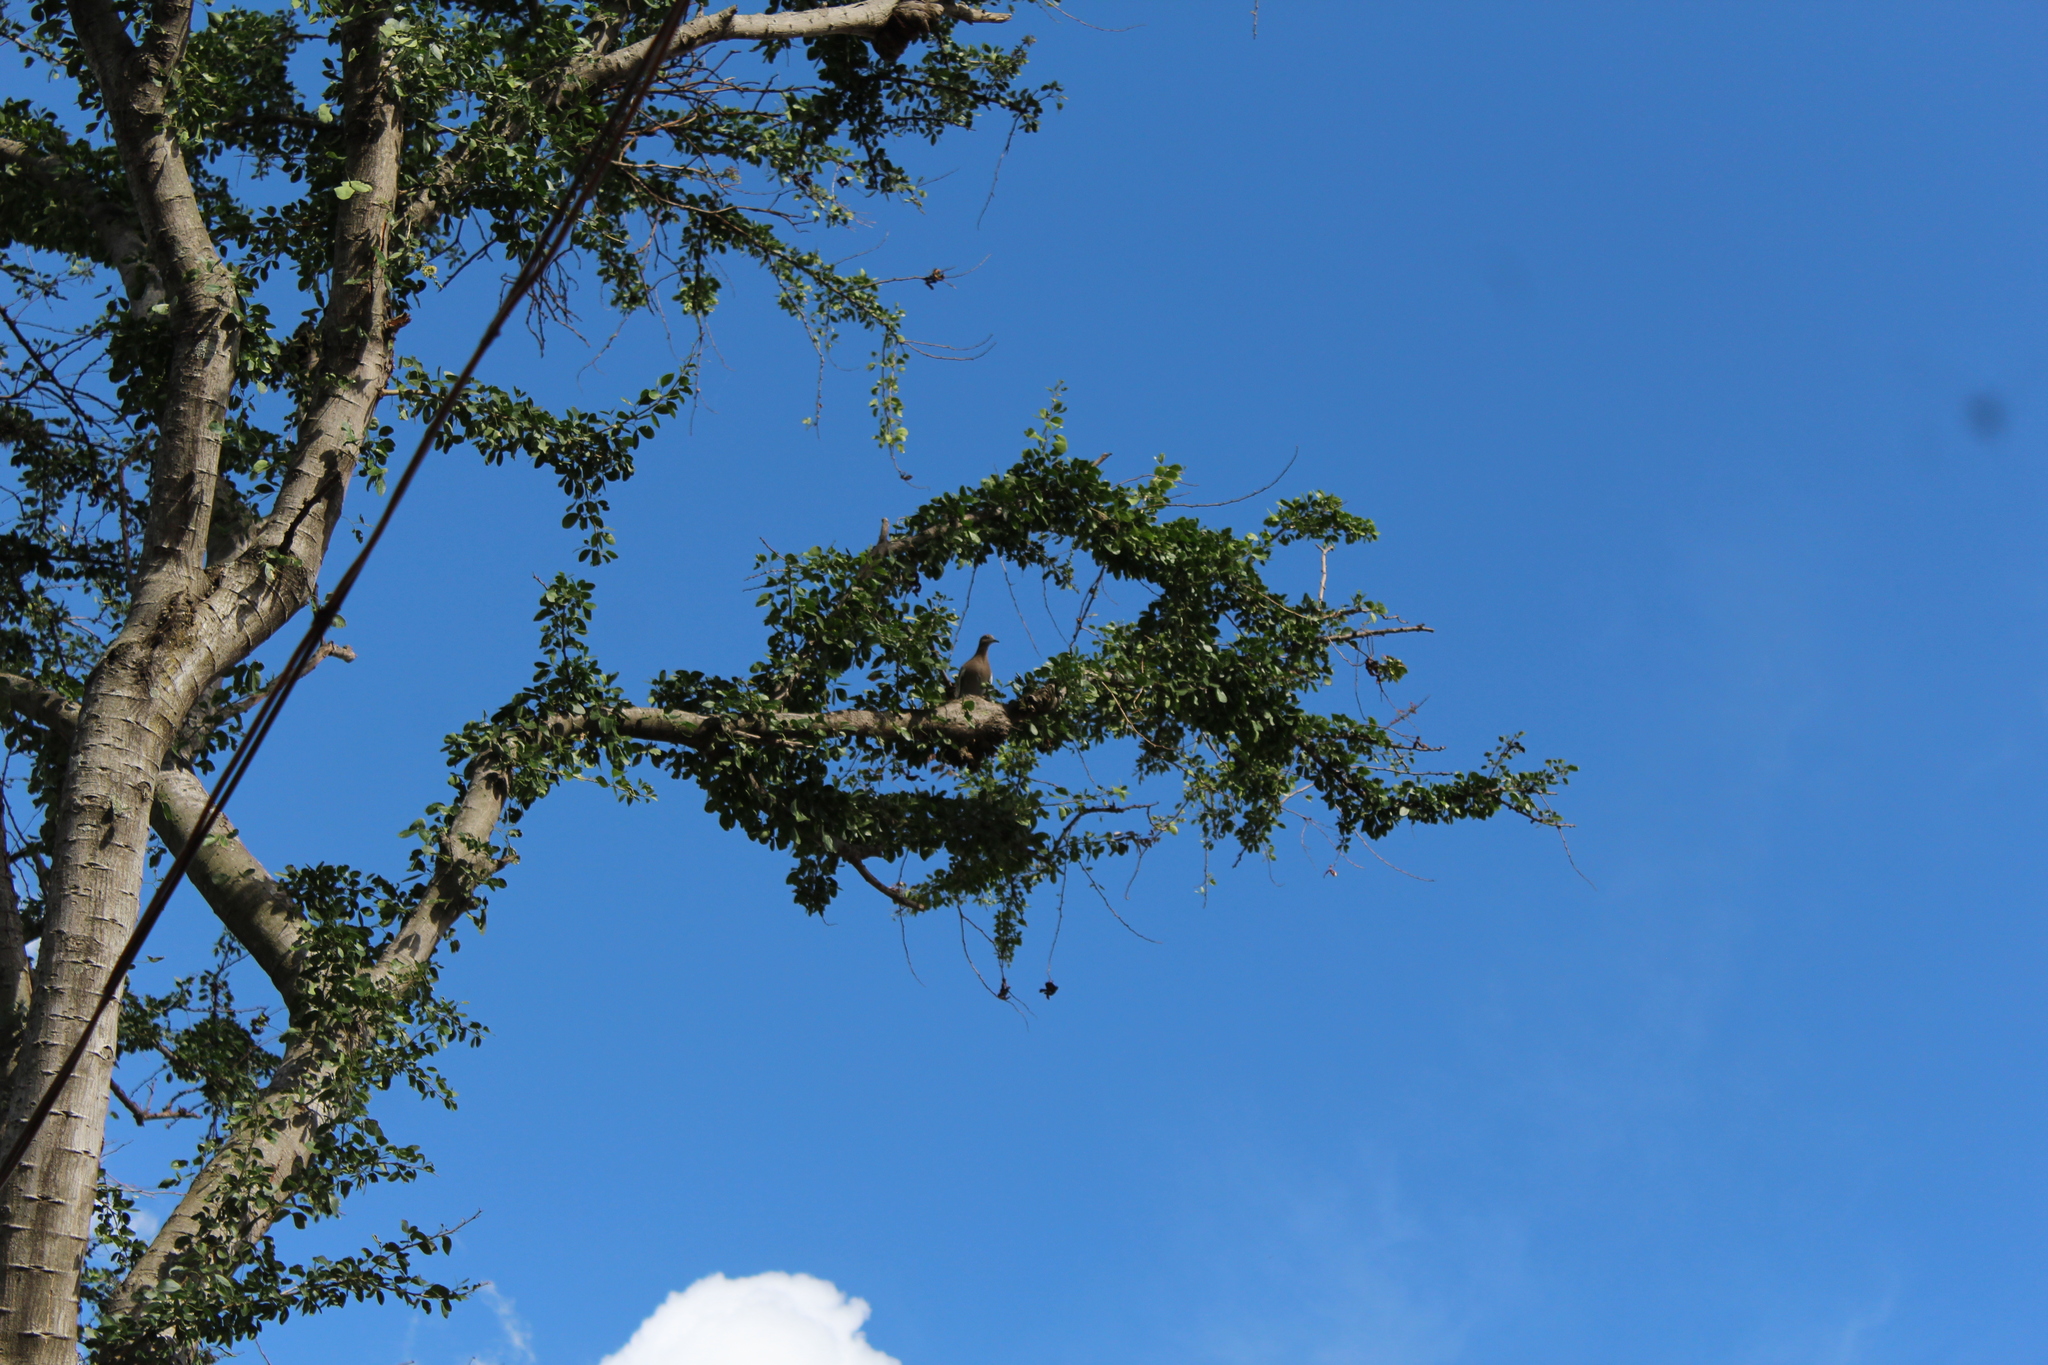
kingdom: Animalia
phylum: Chordata
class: Aves
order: Columbiformes
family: Columbidae
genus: Zenaida
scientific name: Zenaida asiatica
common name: White-winged dove
